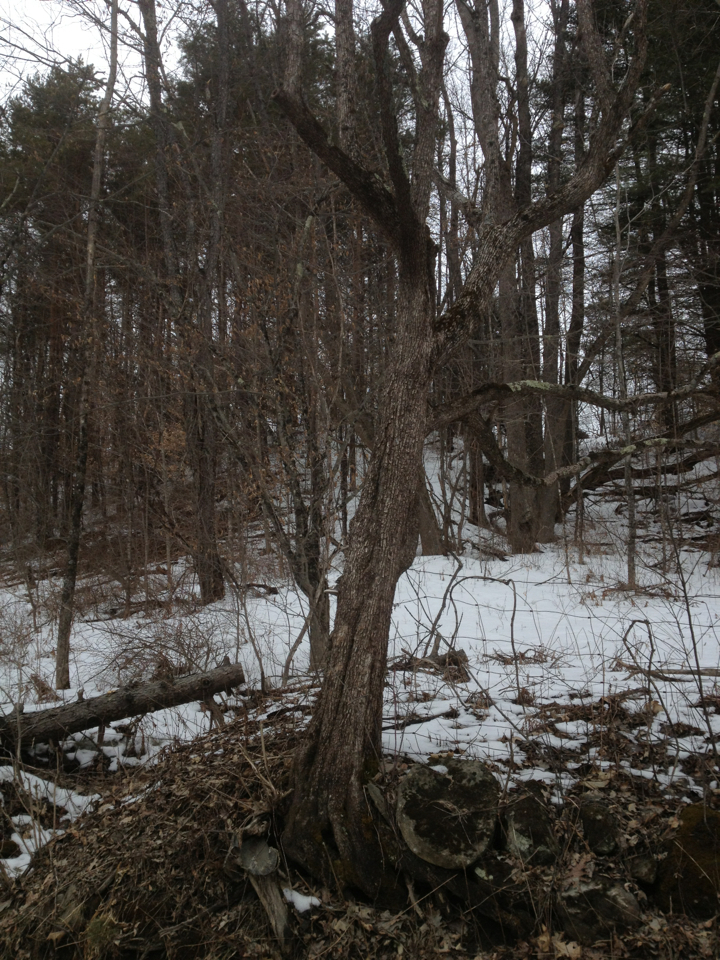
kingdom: Plantae
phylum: Tracheophyta
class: Magnoliopsida
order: Fagales
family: Betulaceae
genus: Ostrya
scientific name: Ostrya virginiana
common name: Ironwood
